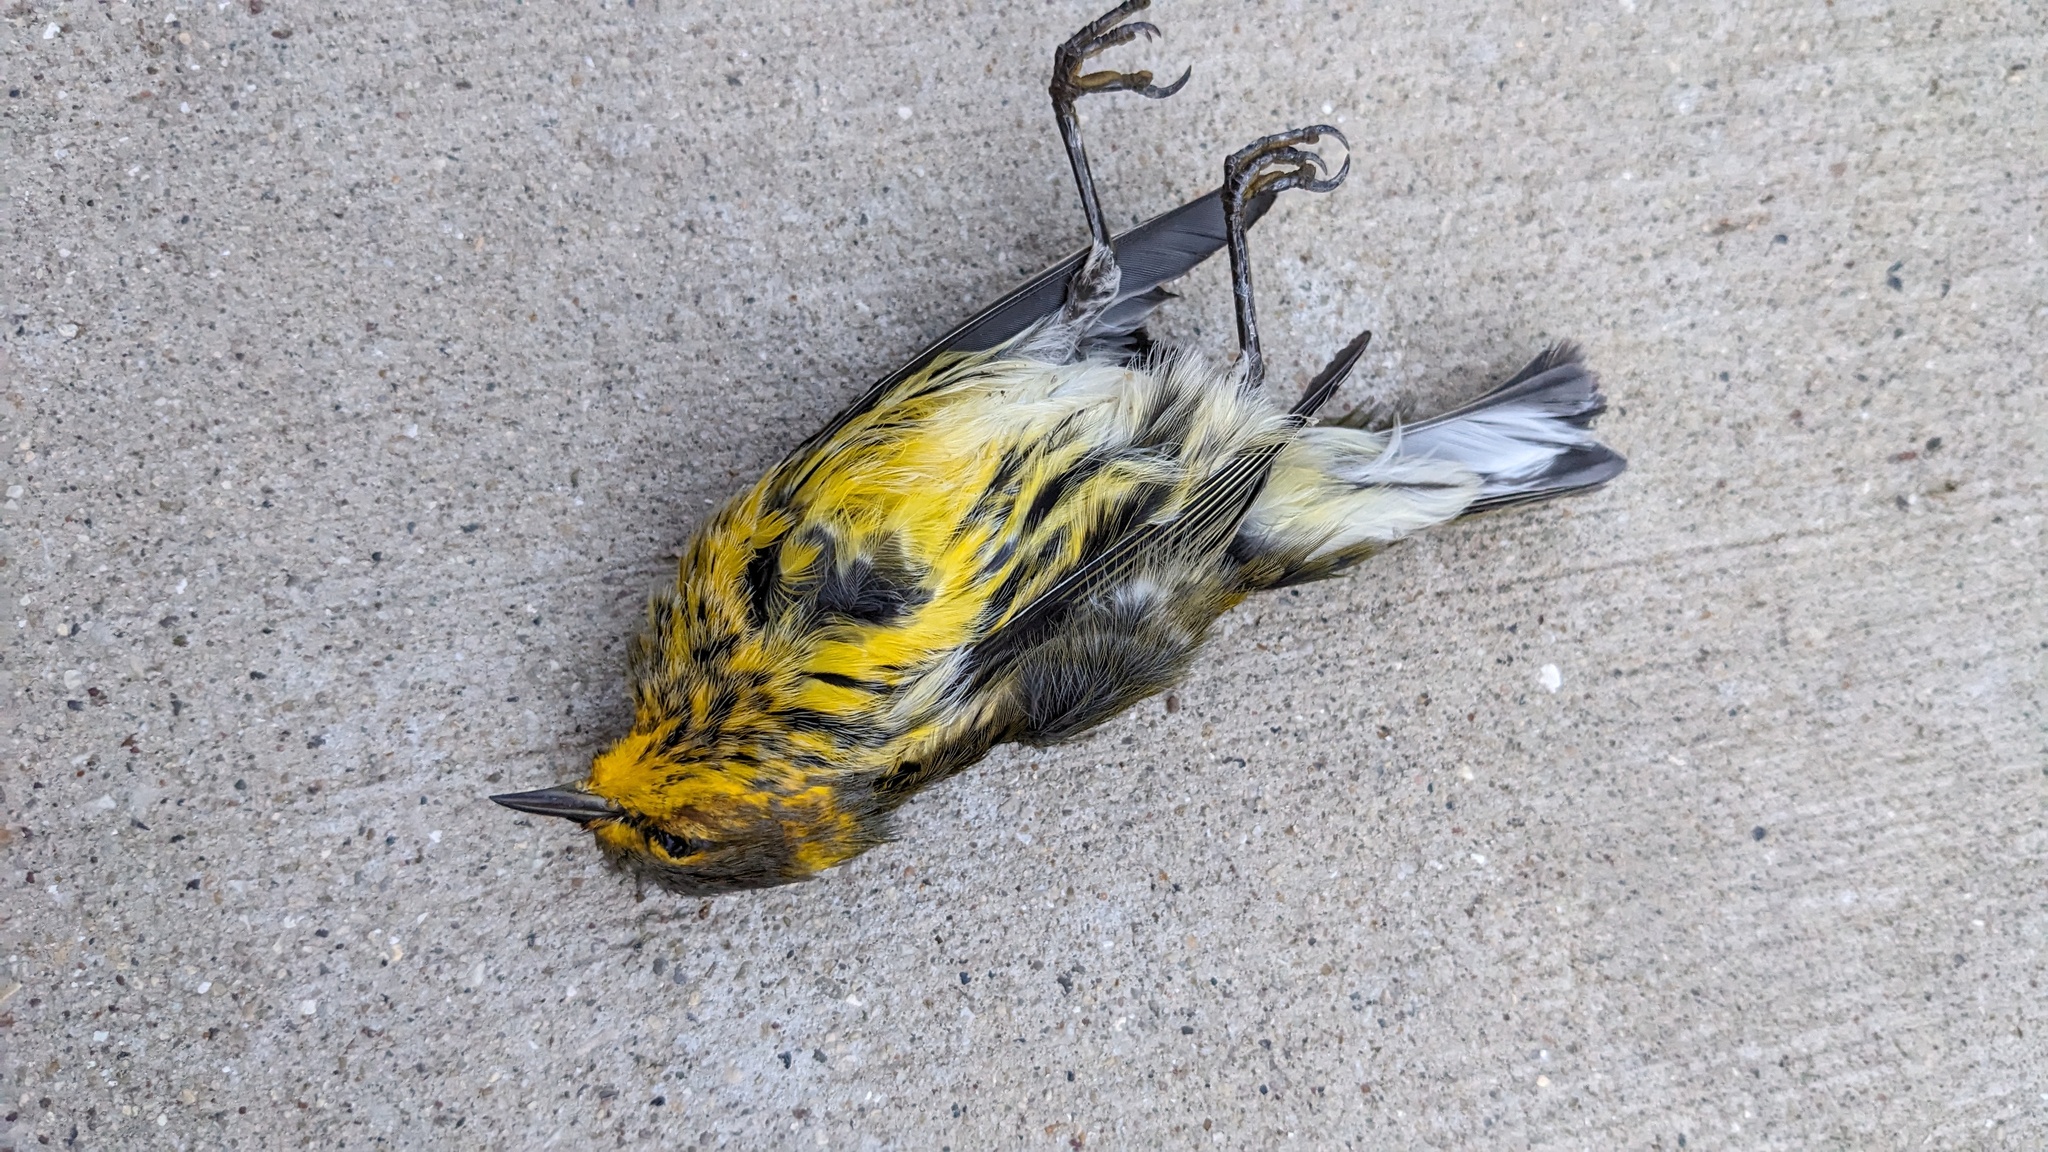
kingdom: Animalia
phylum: Chordata
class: Aves
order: Passeriformes
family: Parulidae
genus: Setophaga
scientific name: Setophaga tigrina
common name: Cape may warbler
